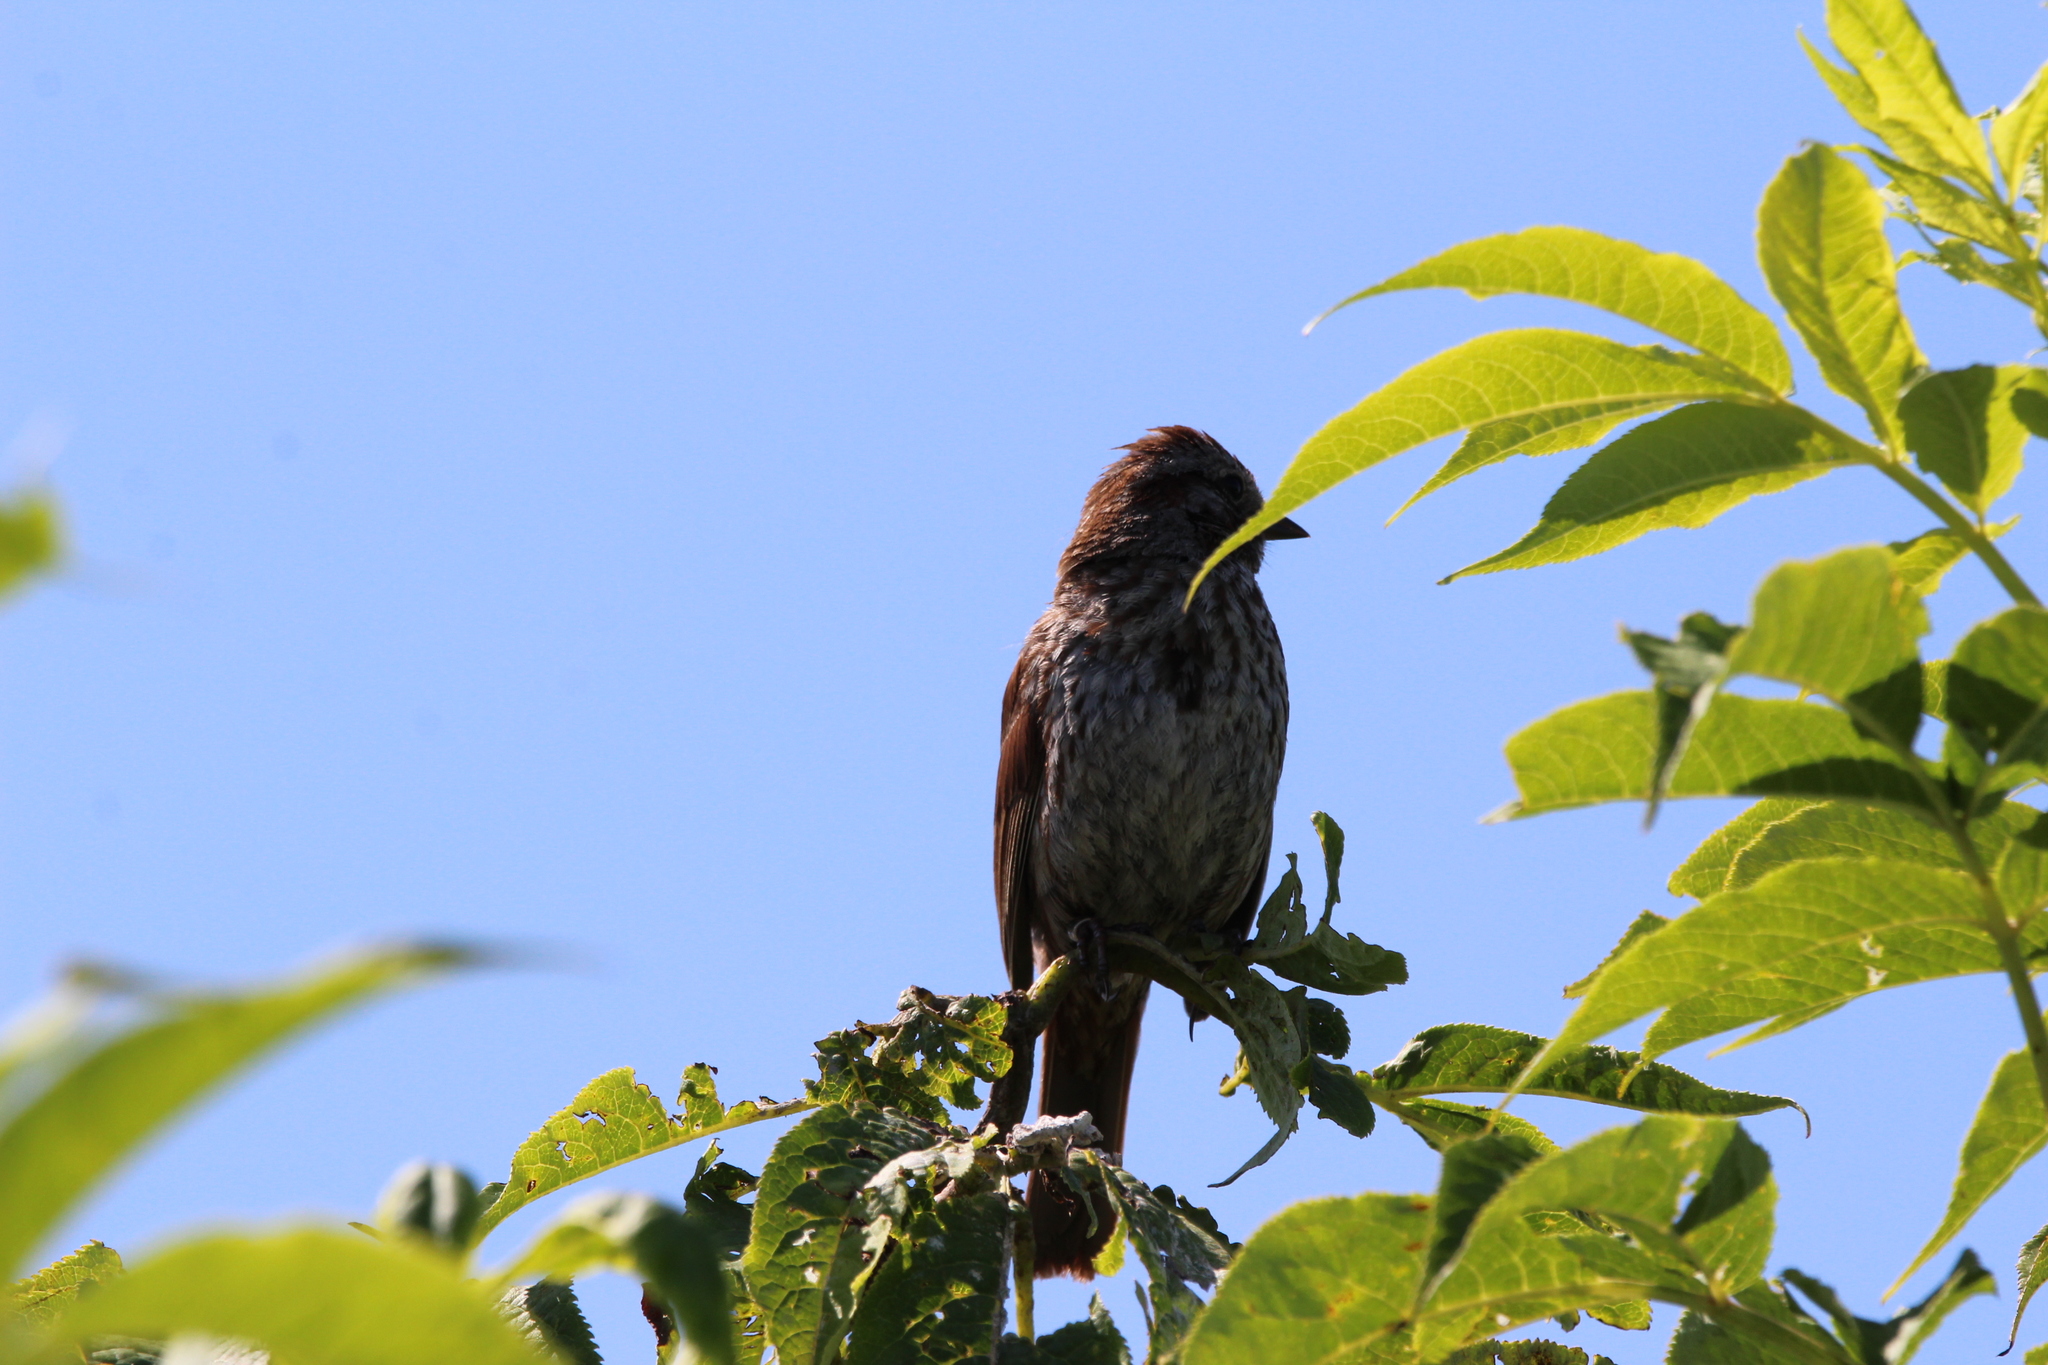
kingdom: Animalia
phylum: Chordata
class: Aves
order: Passeriformes
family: Passerellidae
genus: Melospiza
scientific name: Melospiza melodia
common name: Song sparrow
